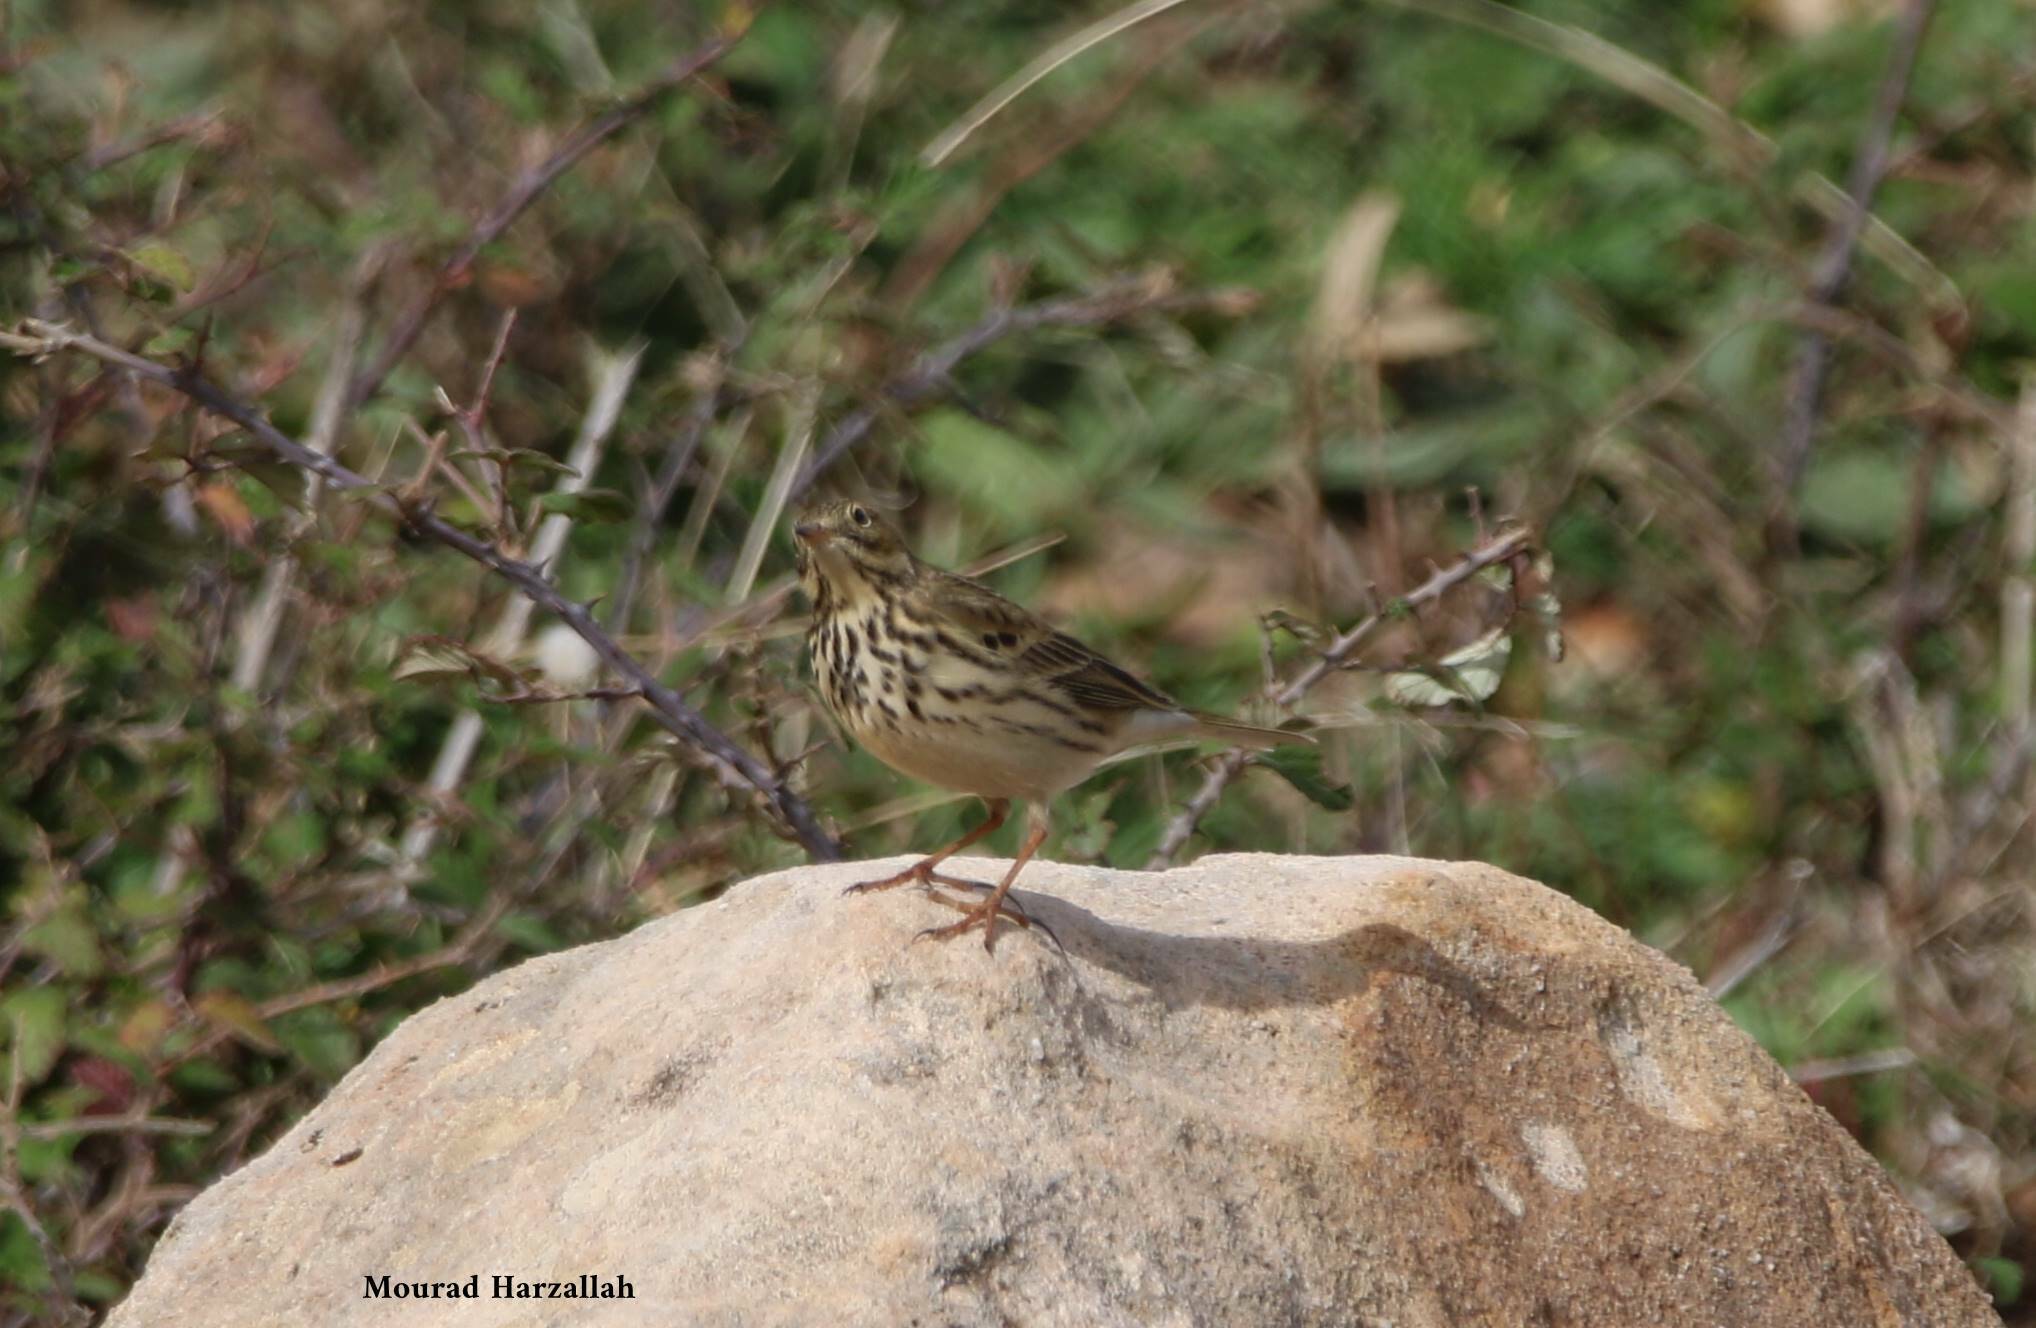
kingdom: Animalia
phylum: Chordata
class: Aves
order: Passeriformes
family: Motacillidae
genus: Anthus
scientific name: Anthus pratensis
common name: Meadow pipit
